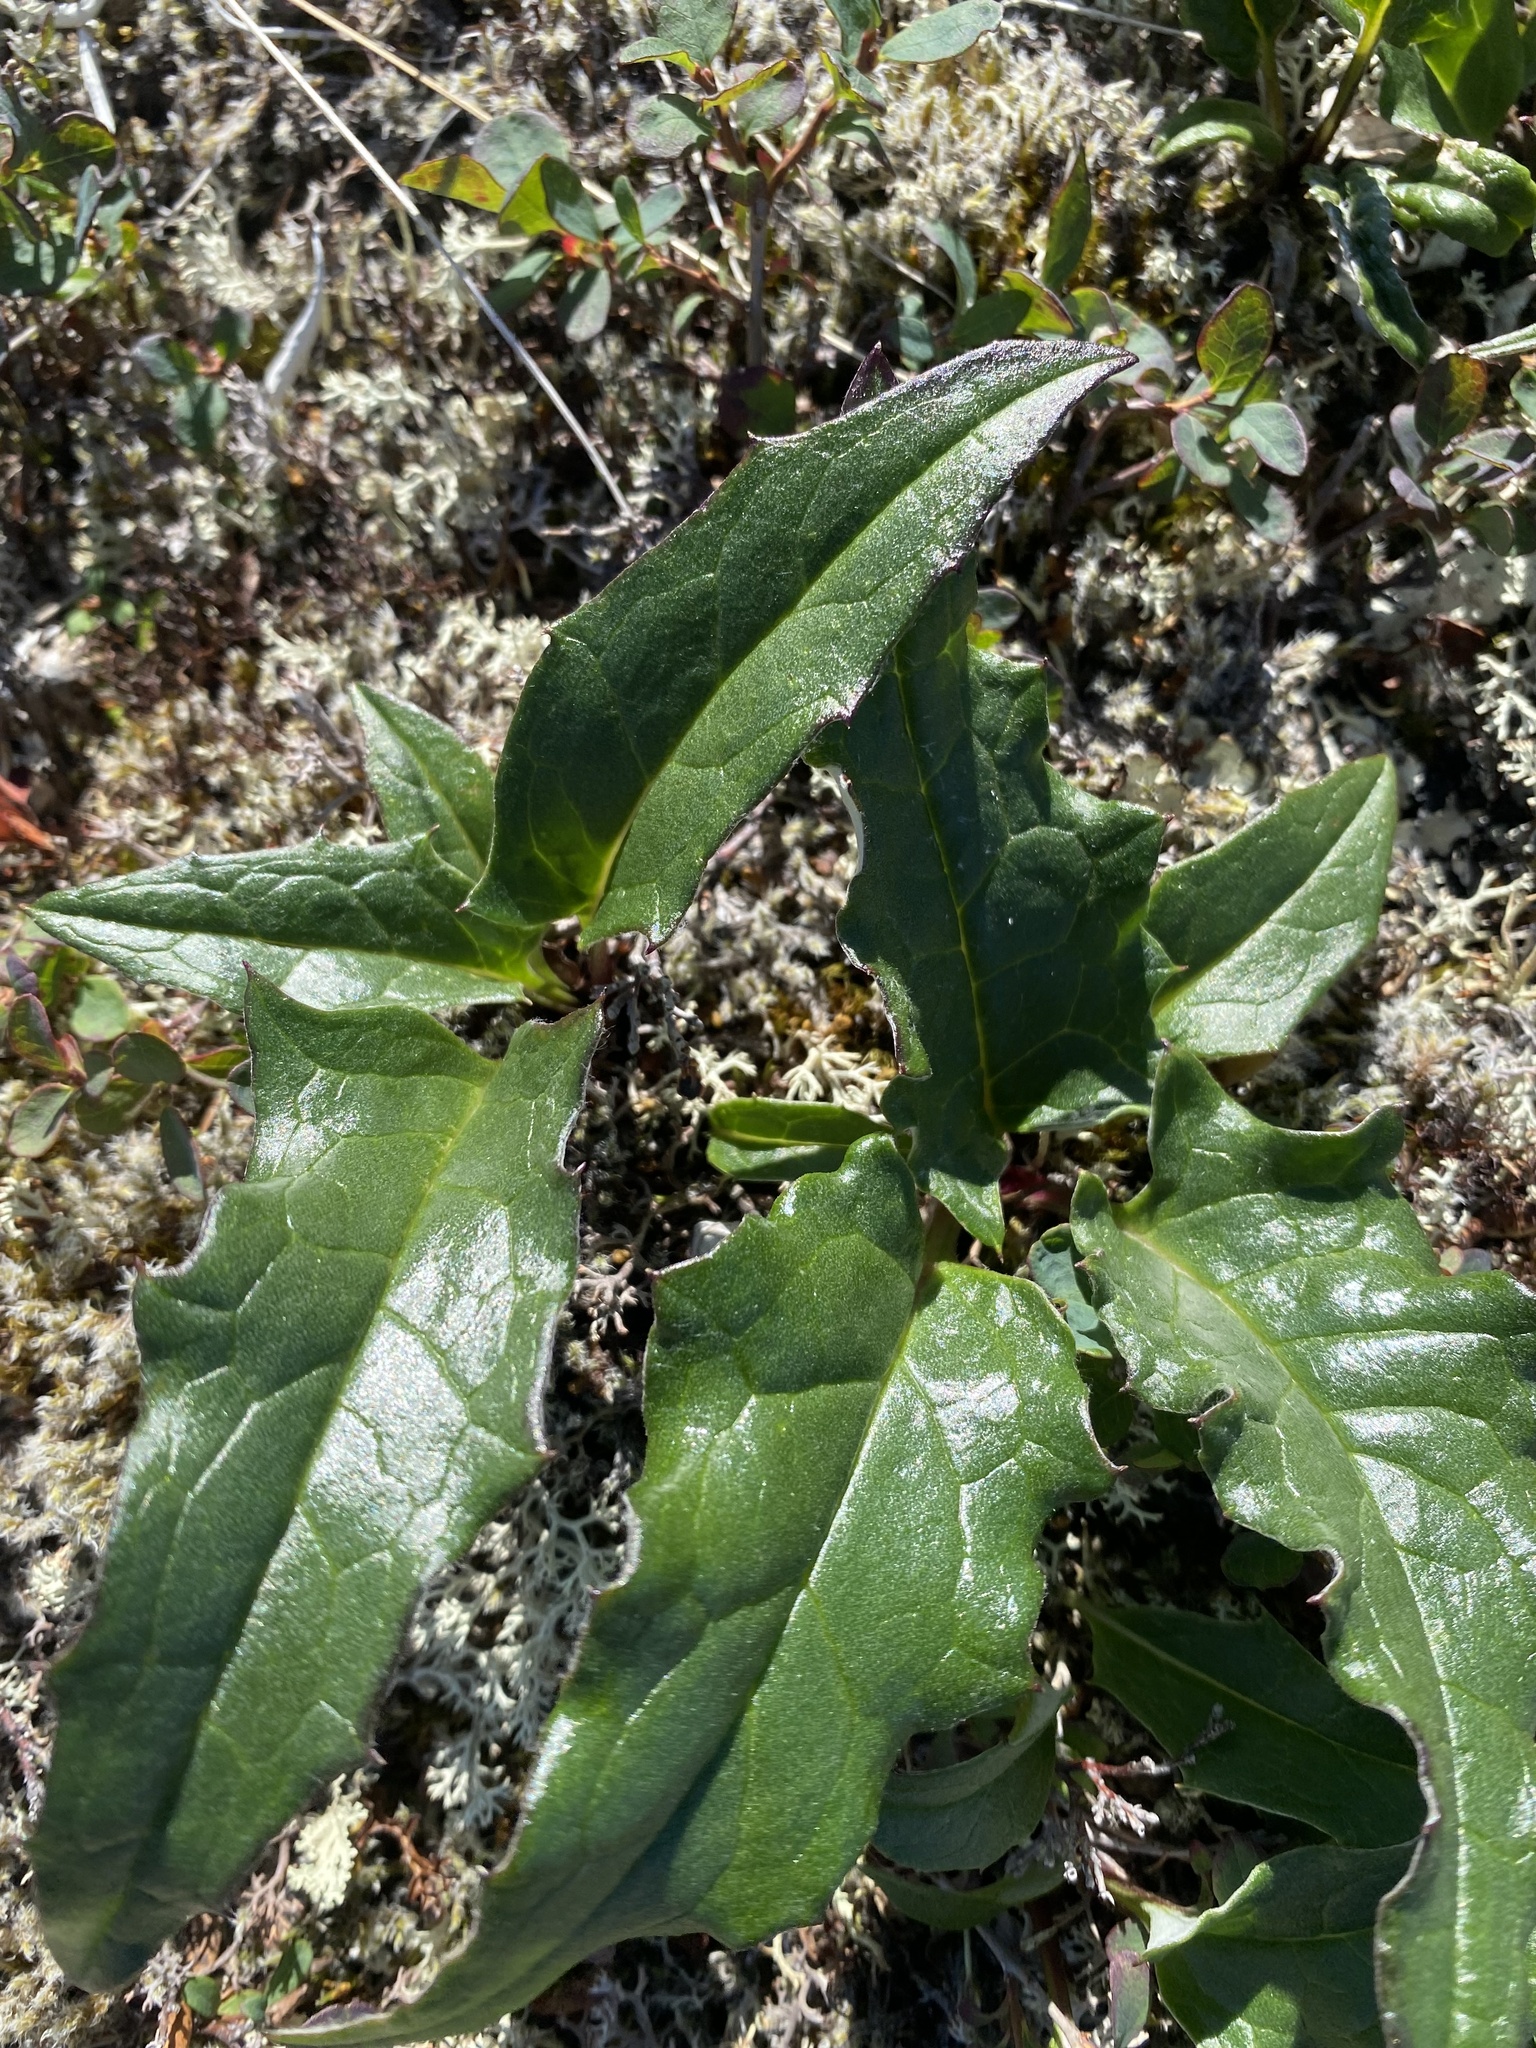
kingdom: Plantae
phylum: Tracheophyta
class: Magnoliopsida
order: Asterales
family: Asteraceae
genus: Saussurea
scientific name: Saussurea tilesii
